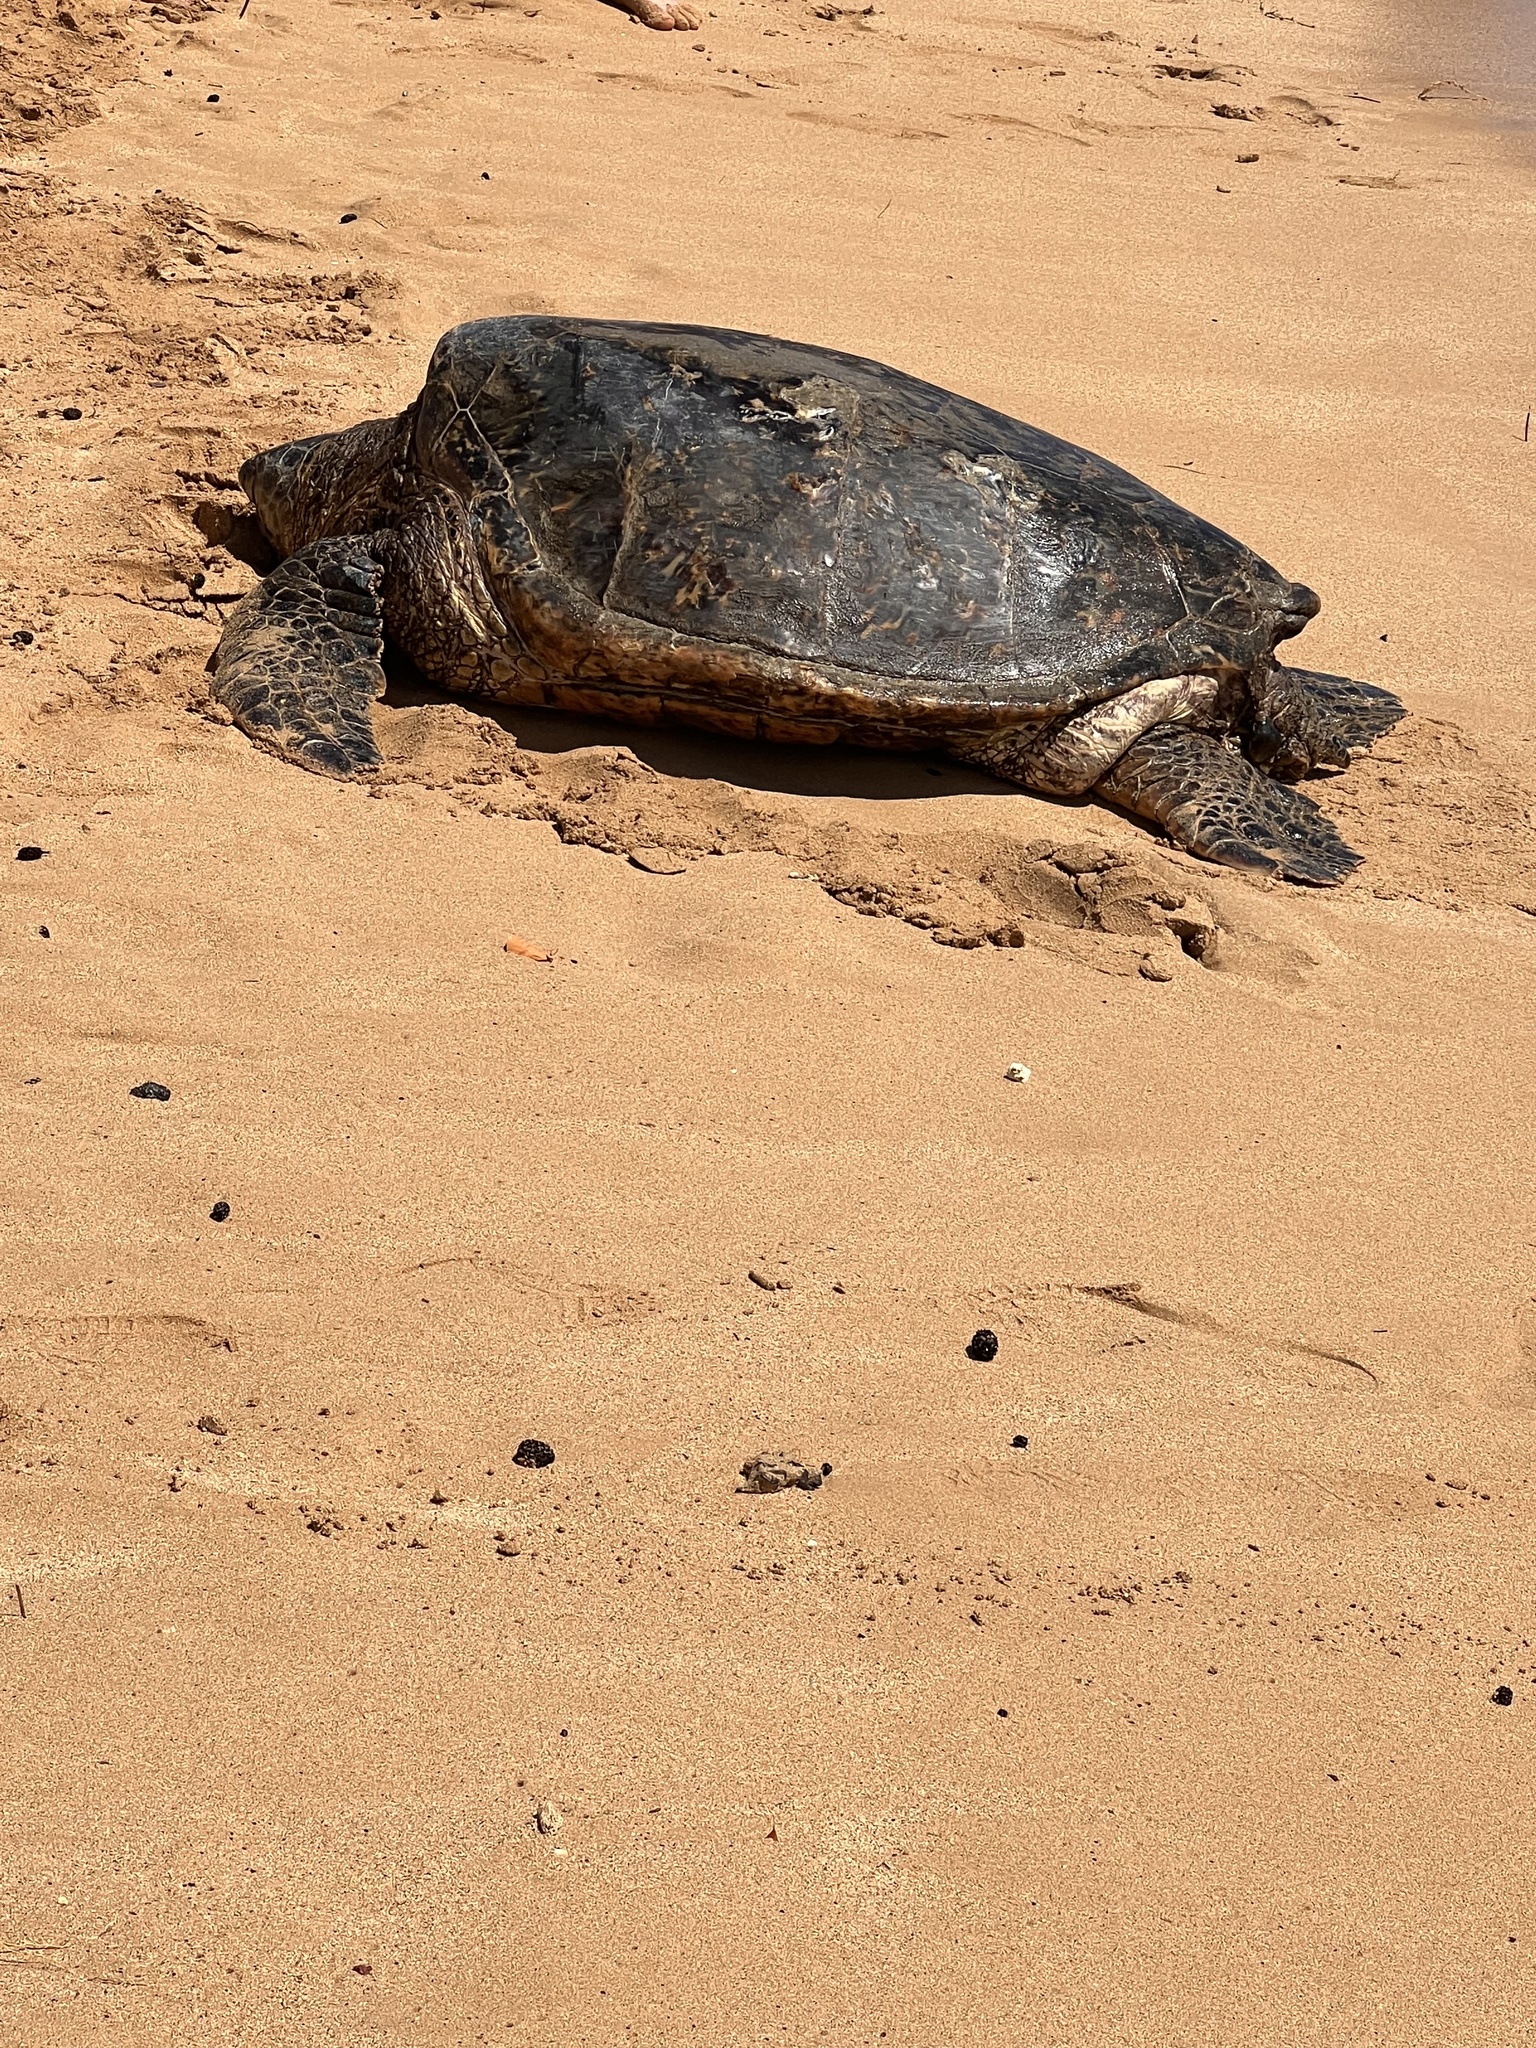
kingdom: Animalia
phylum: Chordata
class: Testudines
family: Cheloniidae
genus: Chelonia
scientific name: Chelonia mydas
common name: Green turtle
